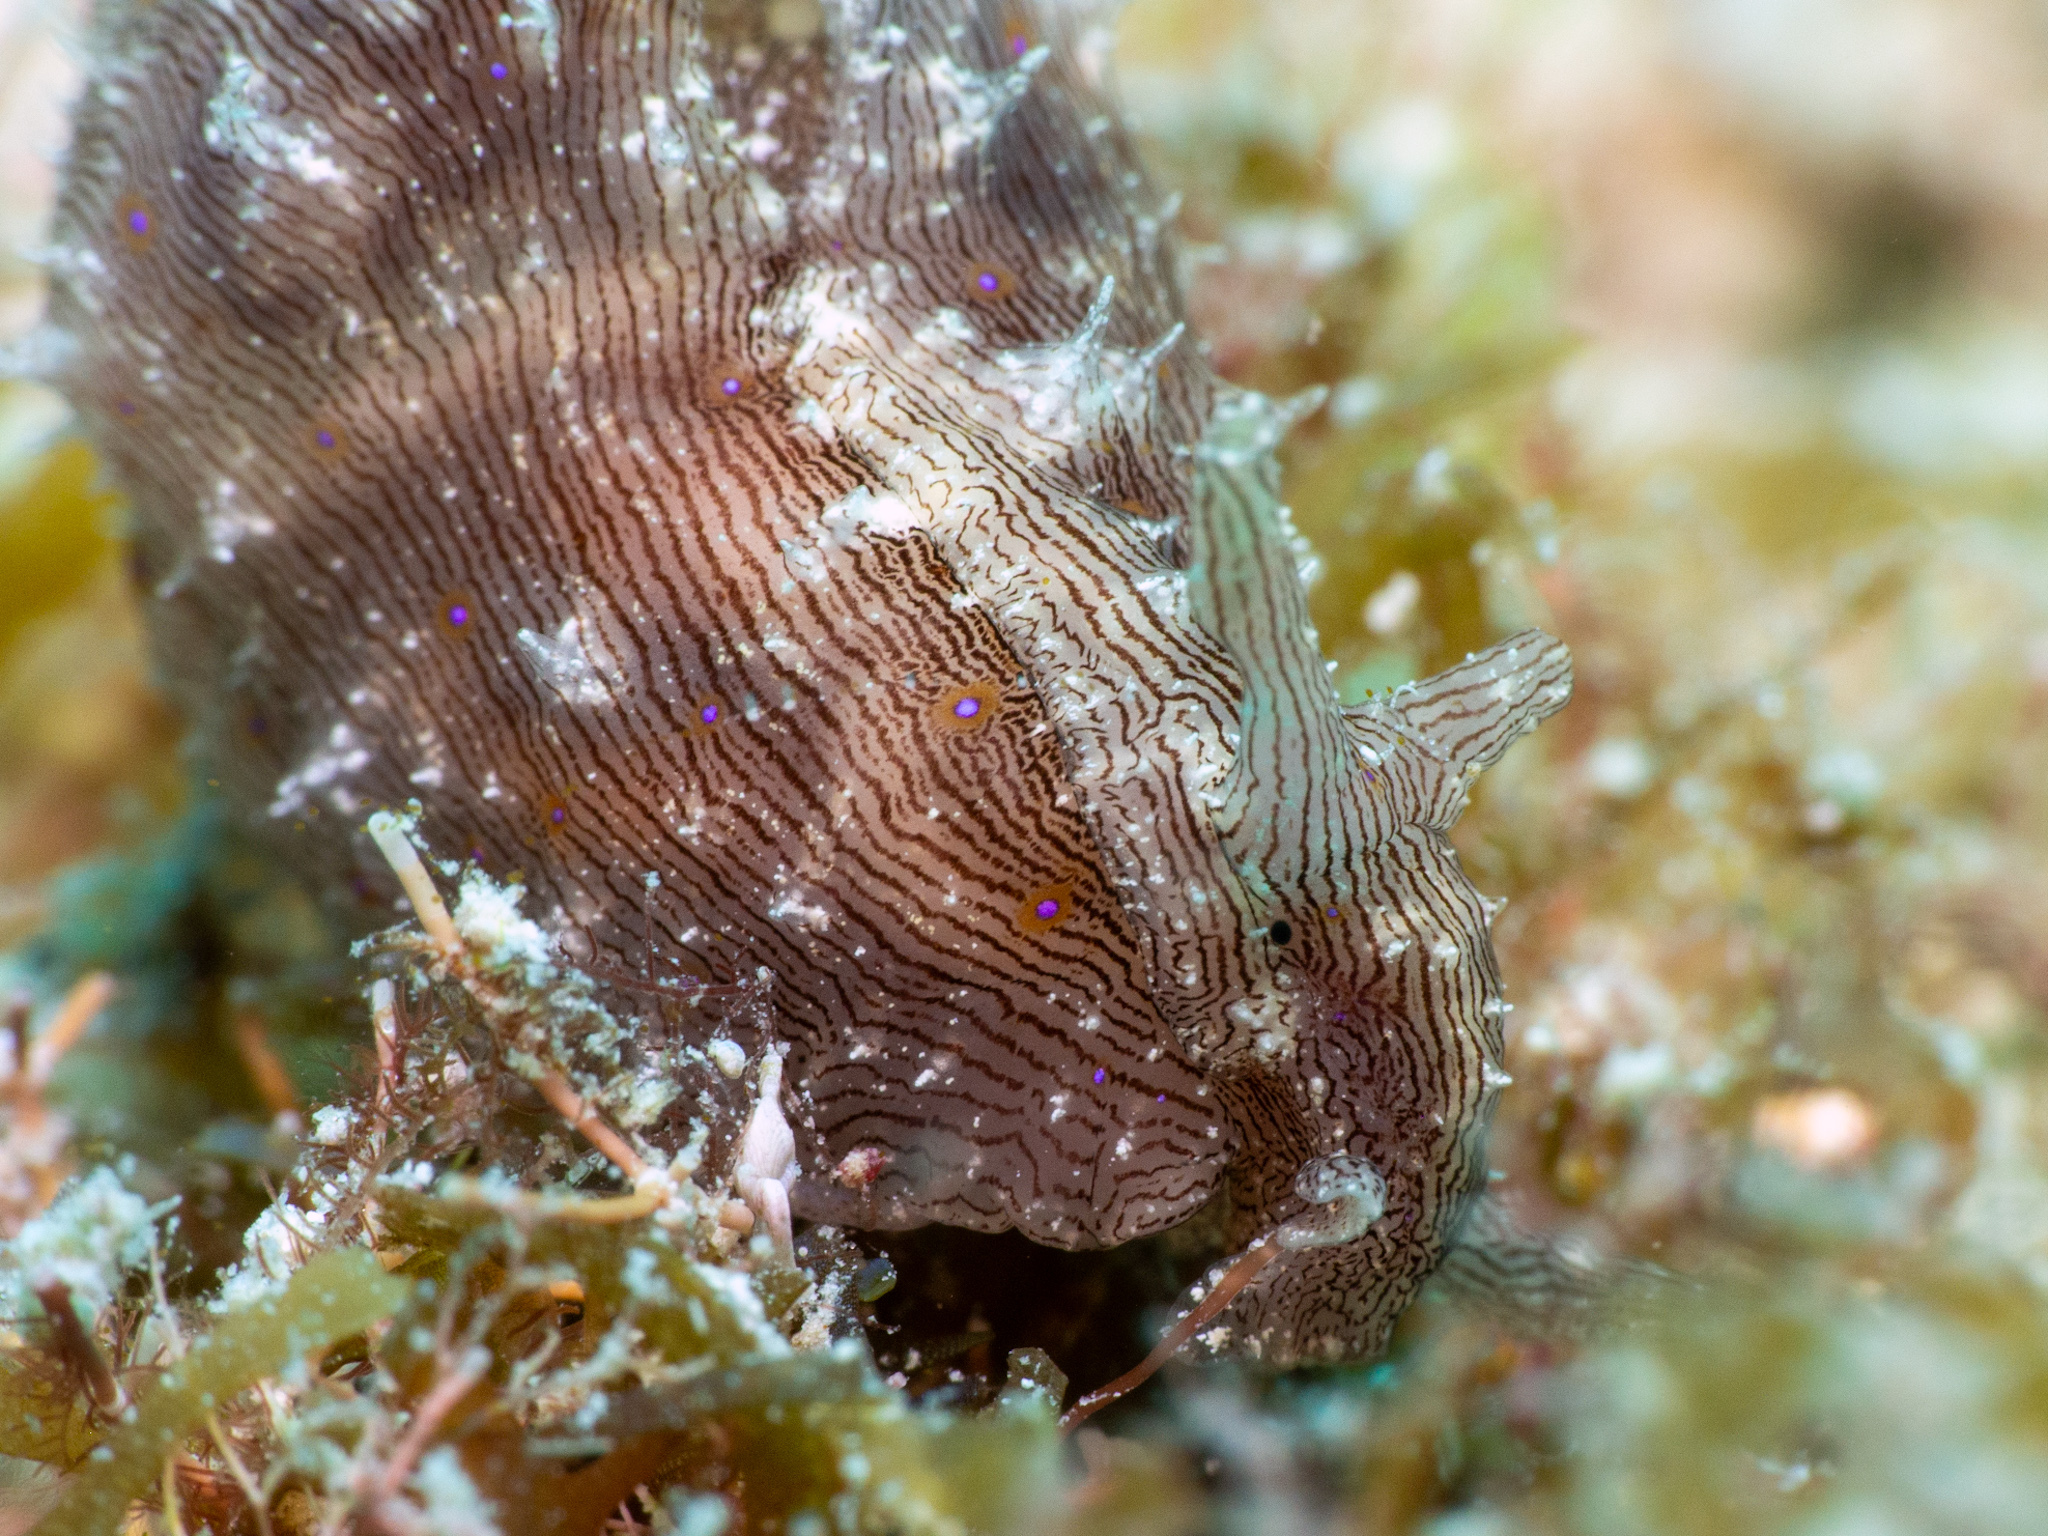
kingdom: Animalia
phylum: Mollusca
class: Gastropoda
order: Aplysiida
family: Aplysiidae
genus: Stylocheilus
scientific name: Stylocheilus polyomma
